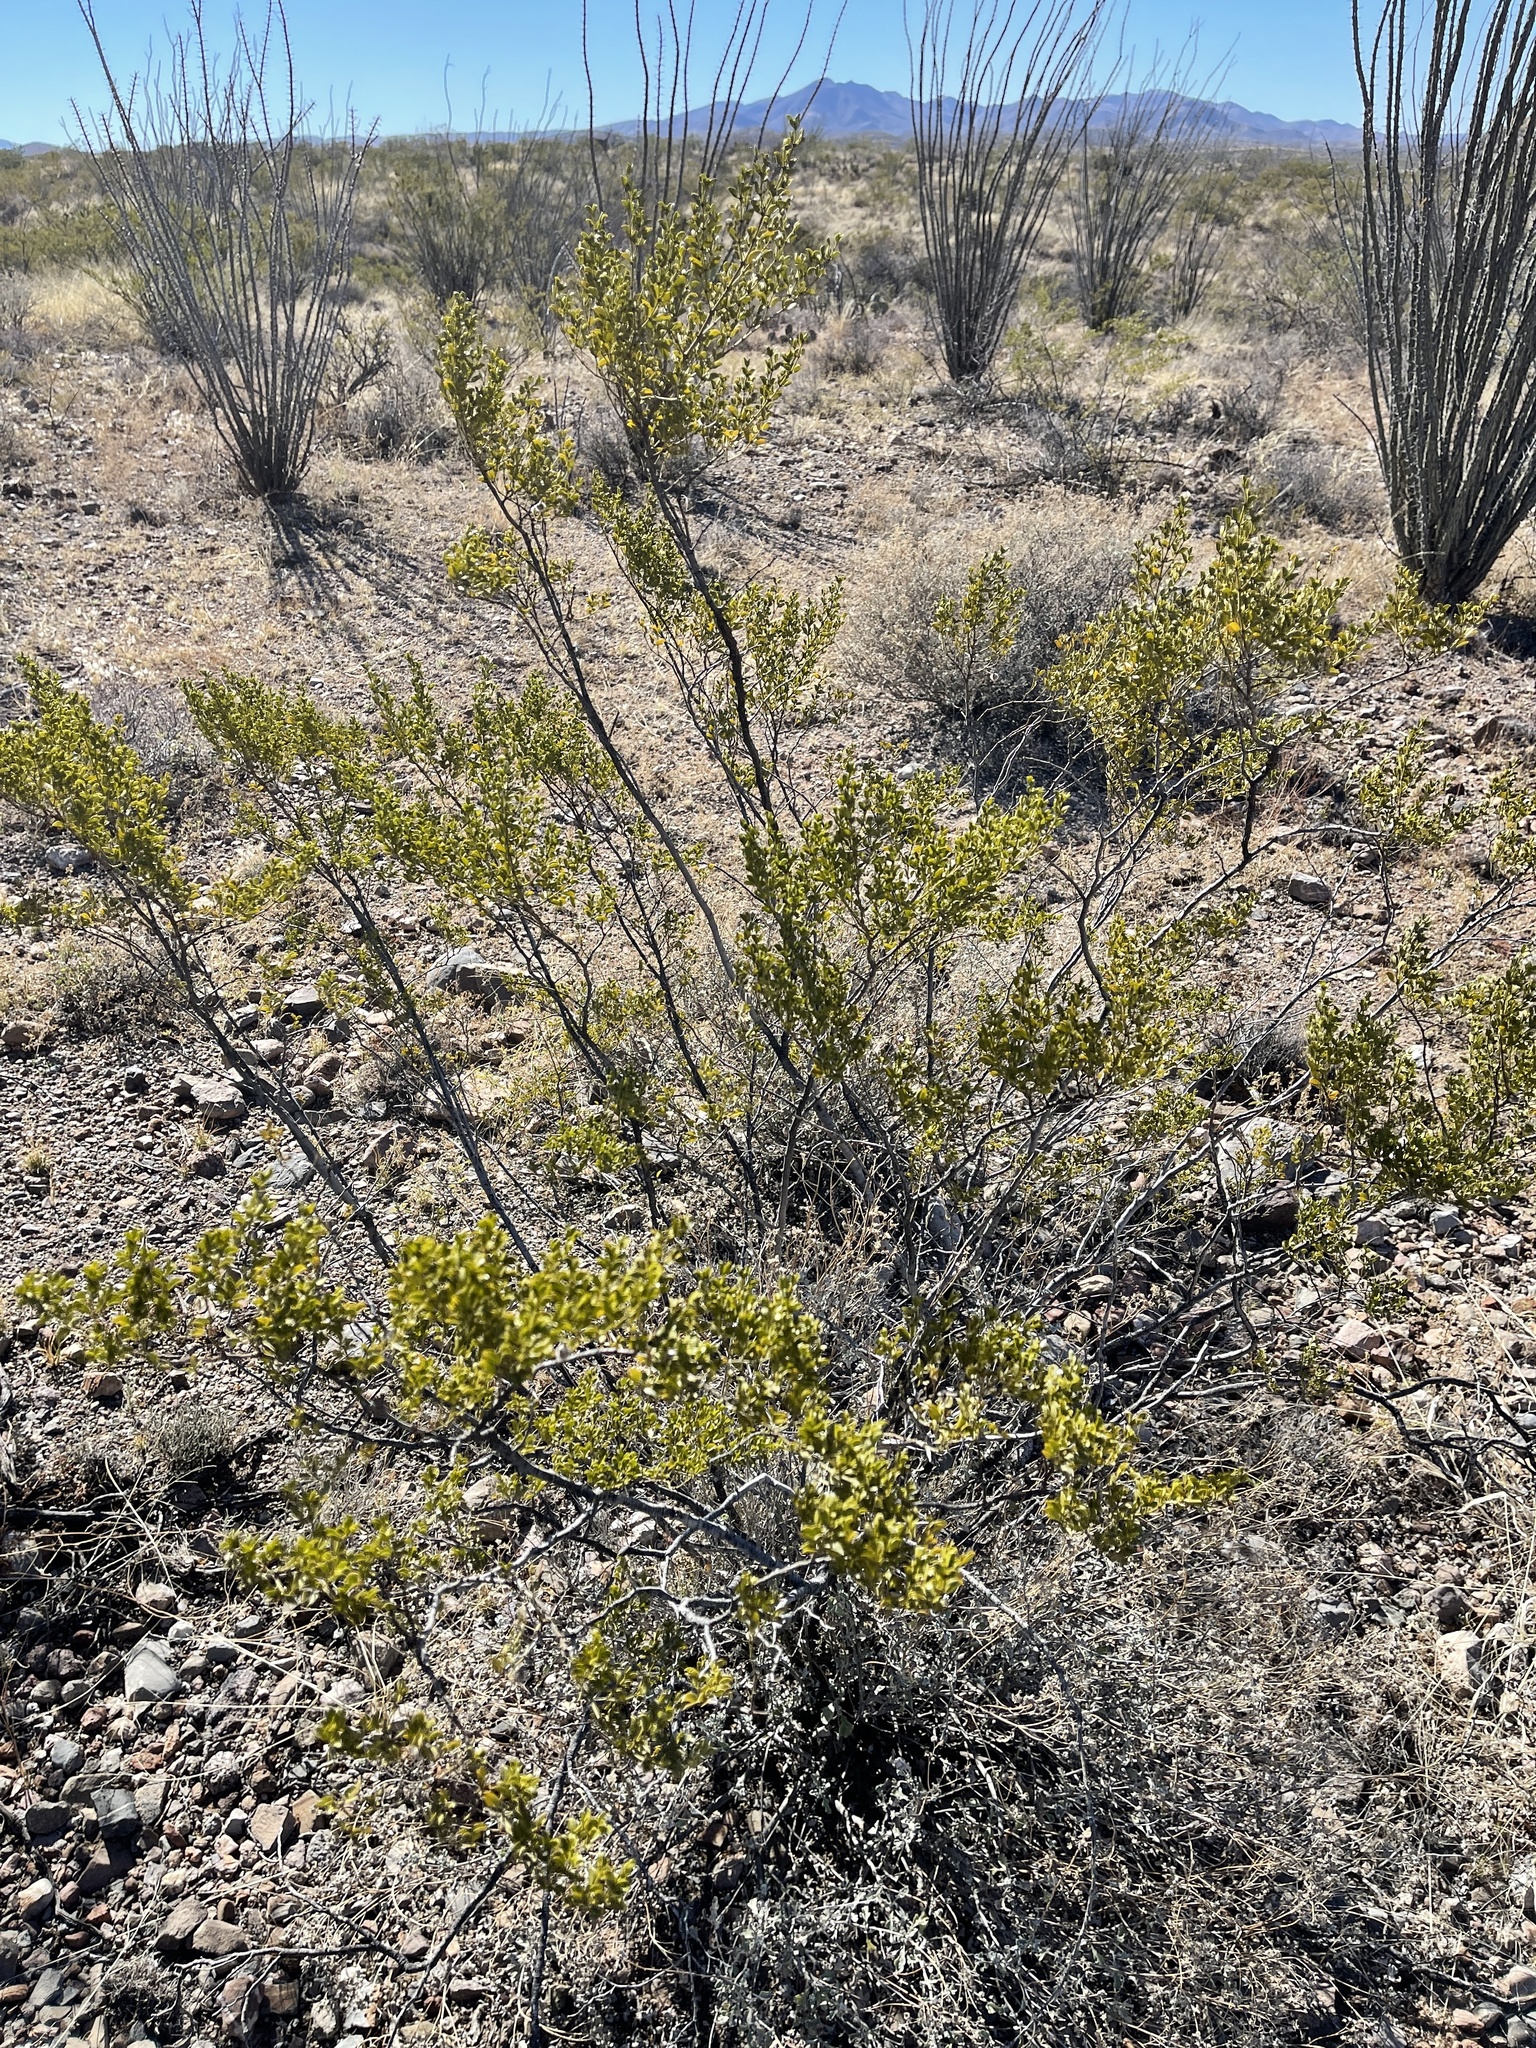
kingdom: Plantae
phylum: Tracheophyta
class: Magnoliopsida
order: Zygophyllales
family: Zygophyllaceae
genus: Larrea
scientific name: Larrea tridentata
